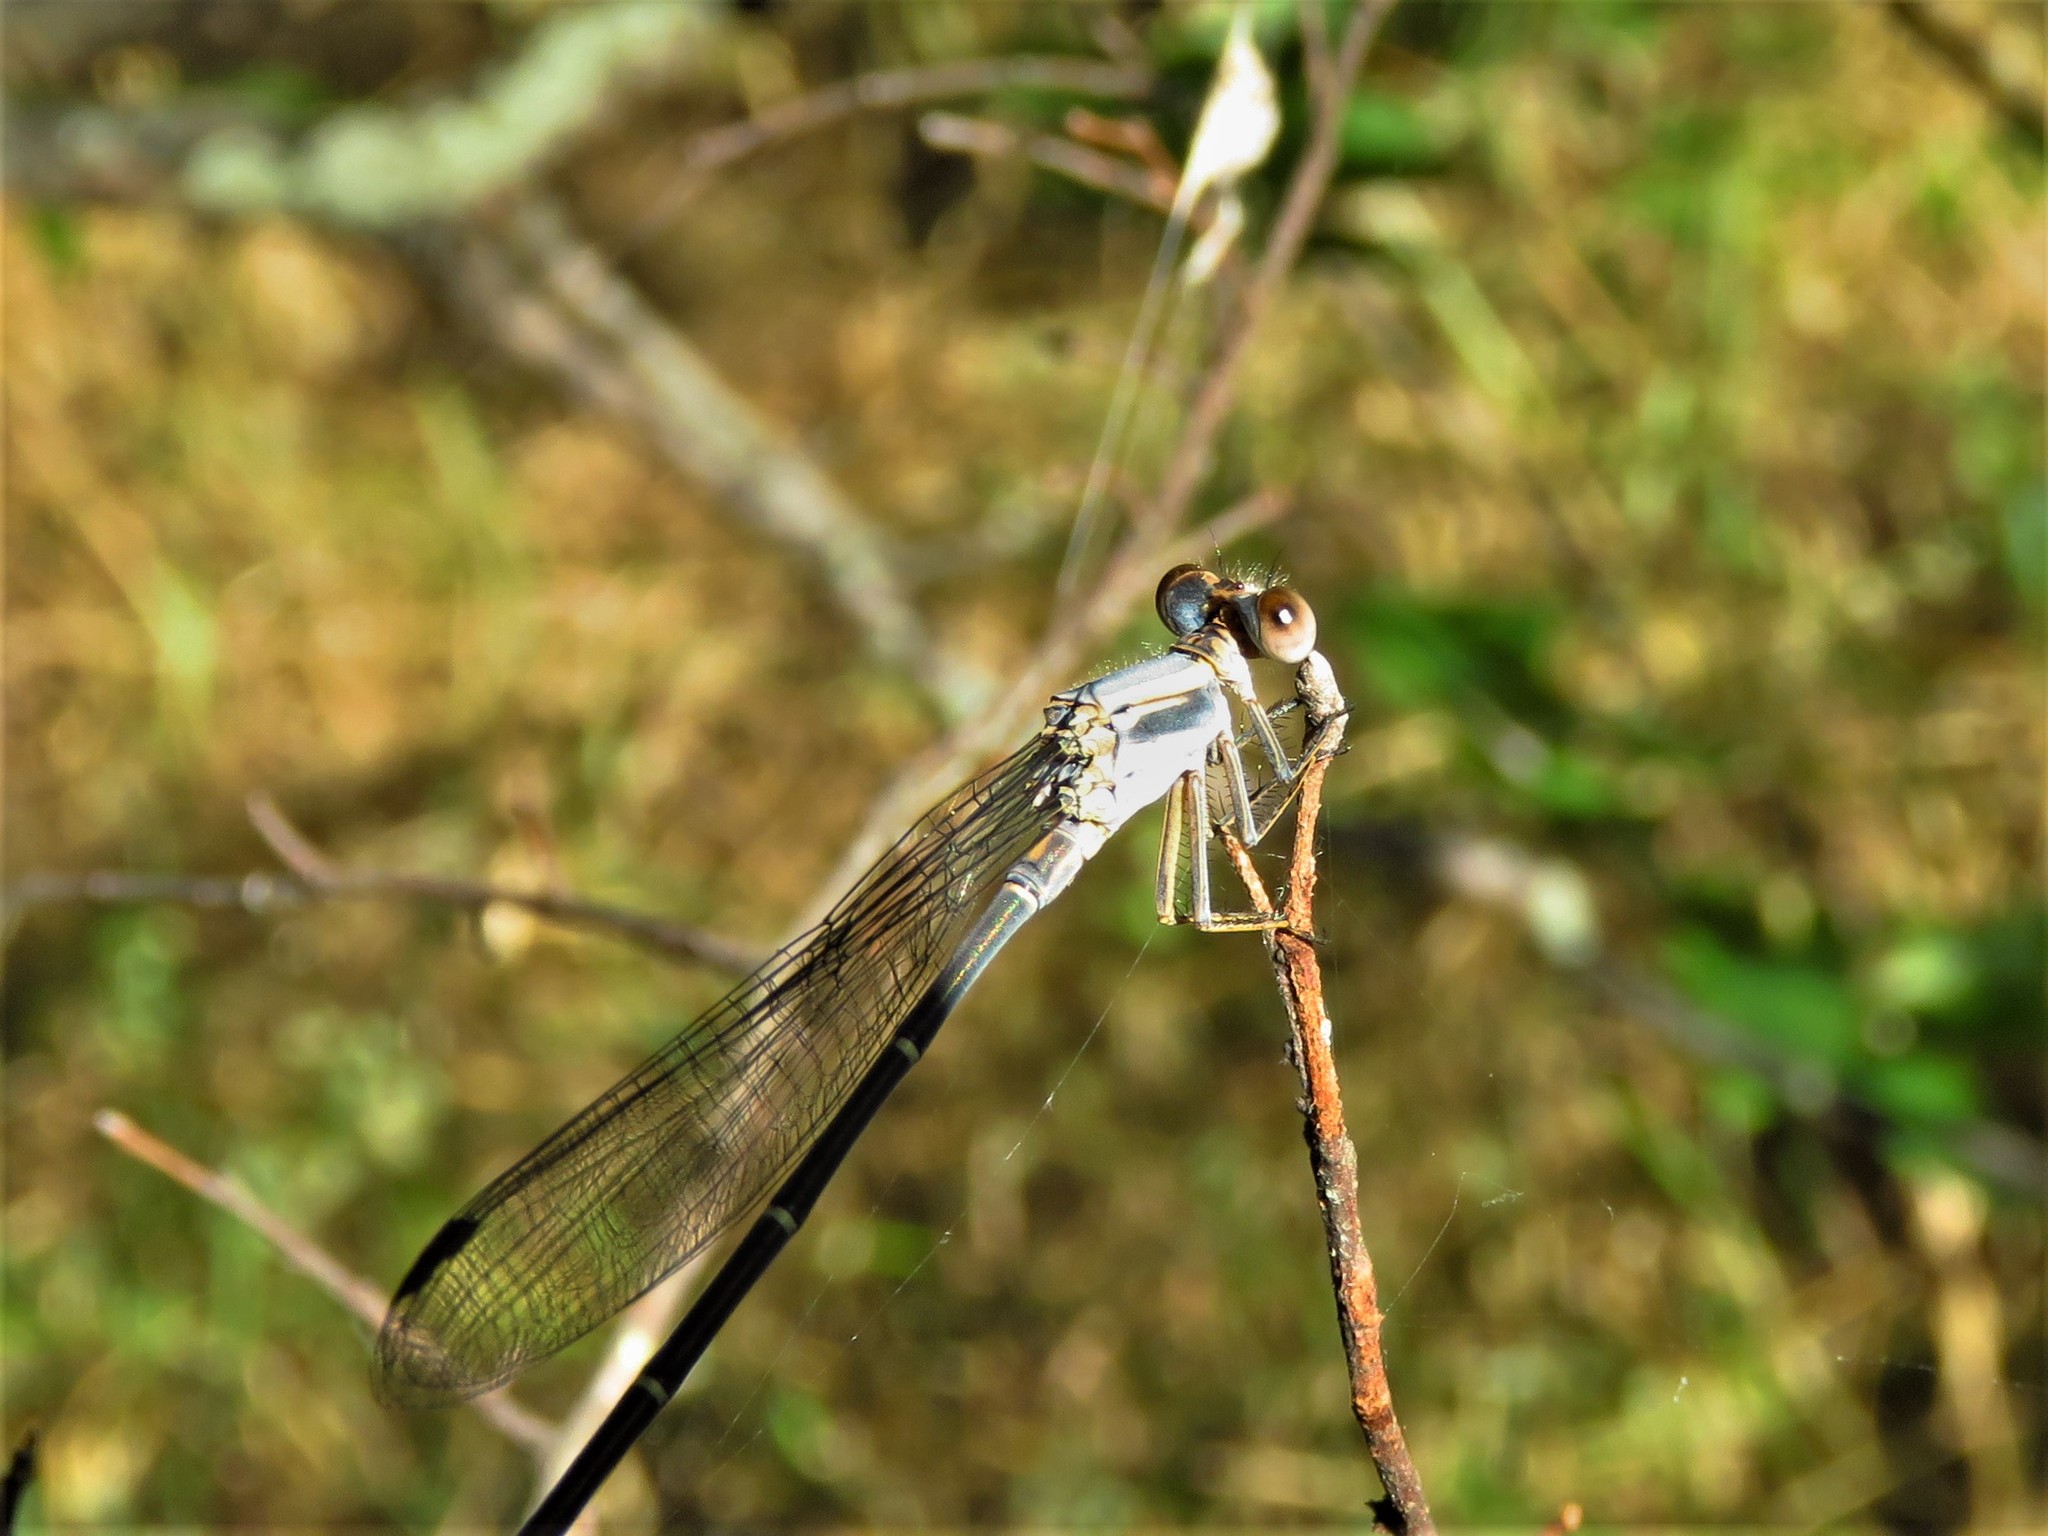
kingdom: Animalia
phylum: Arthropoda
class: Insecta
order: Odonata
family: Coenagrionidae
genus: Argia
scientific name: Argia moesta
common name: Powdered dancer
